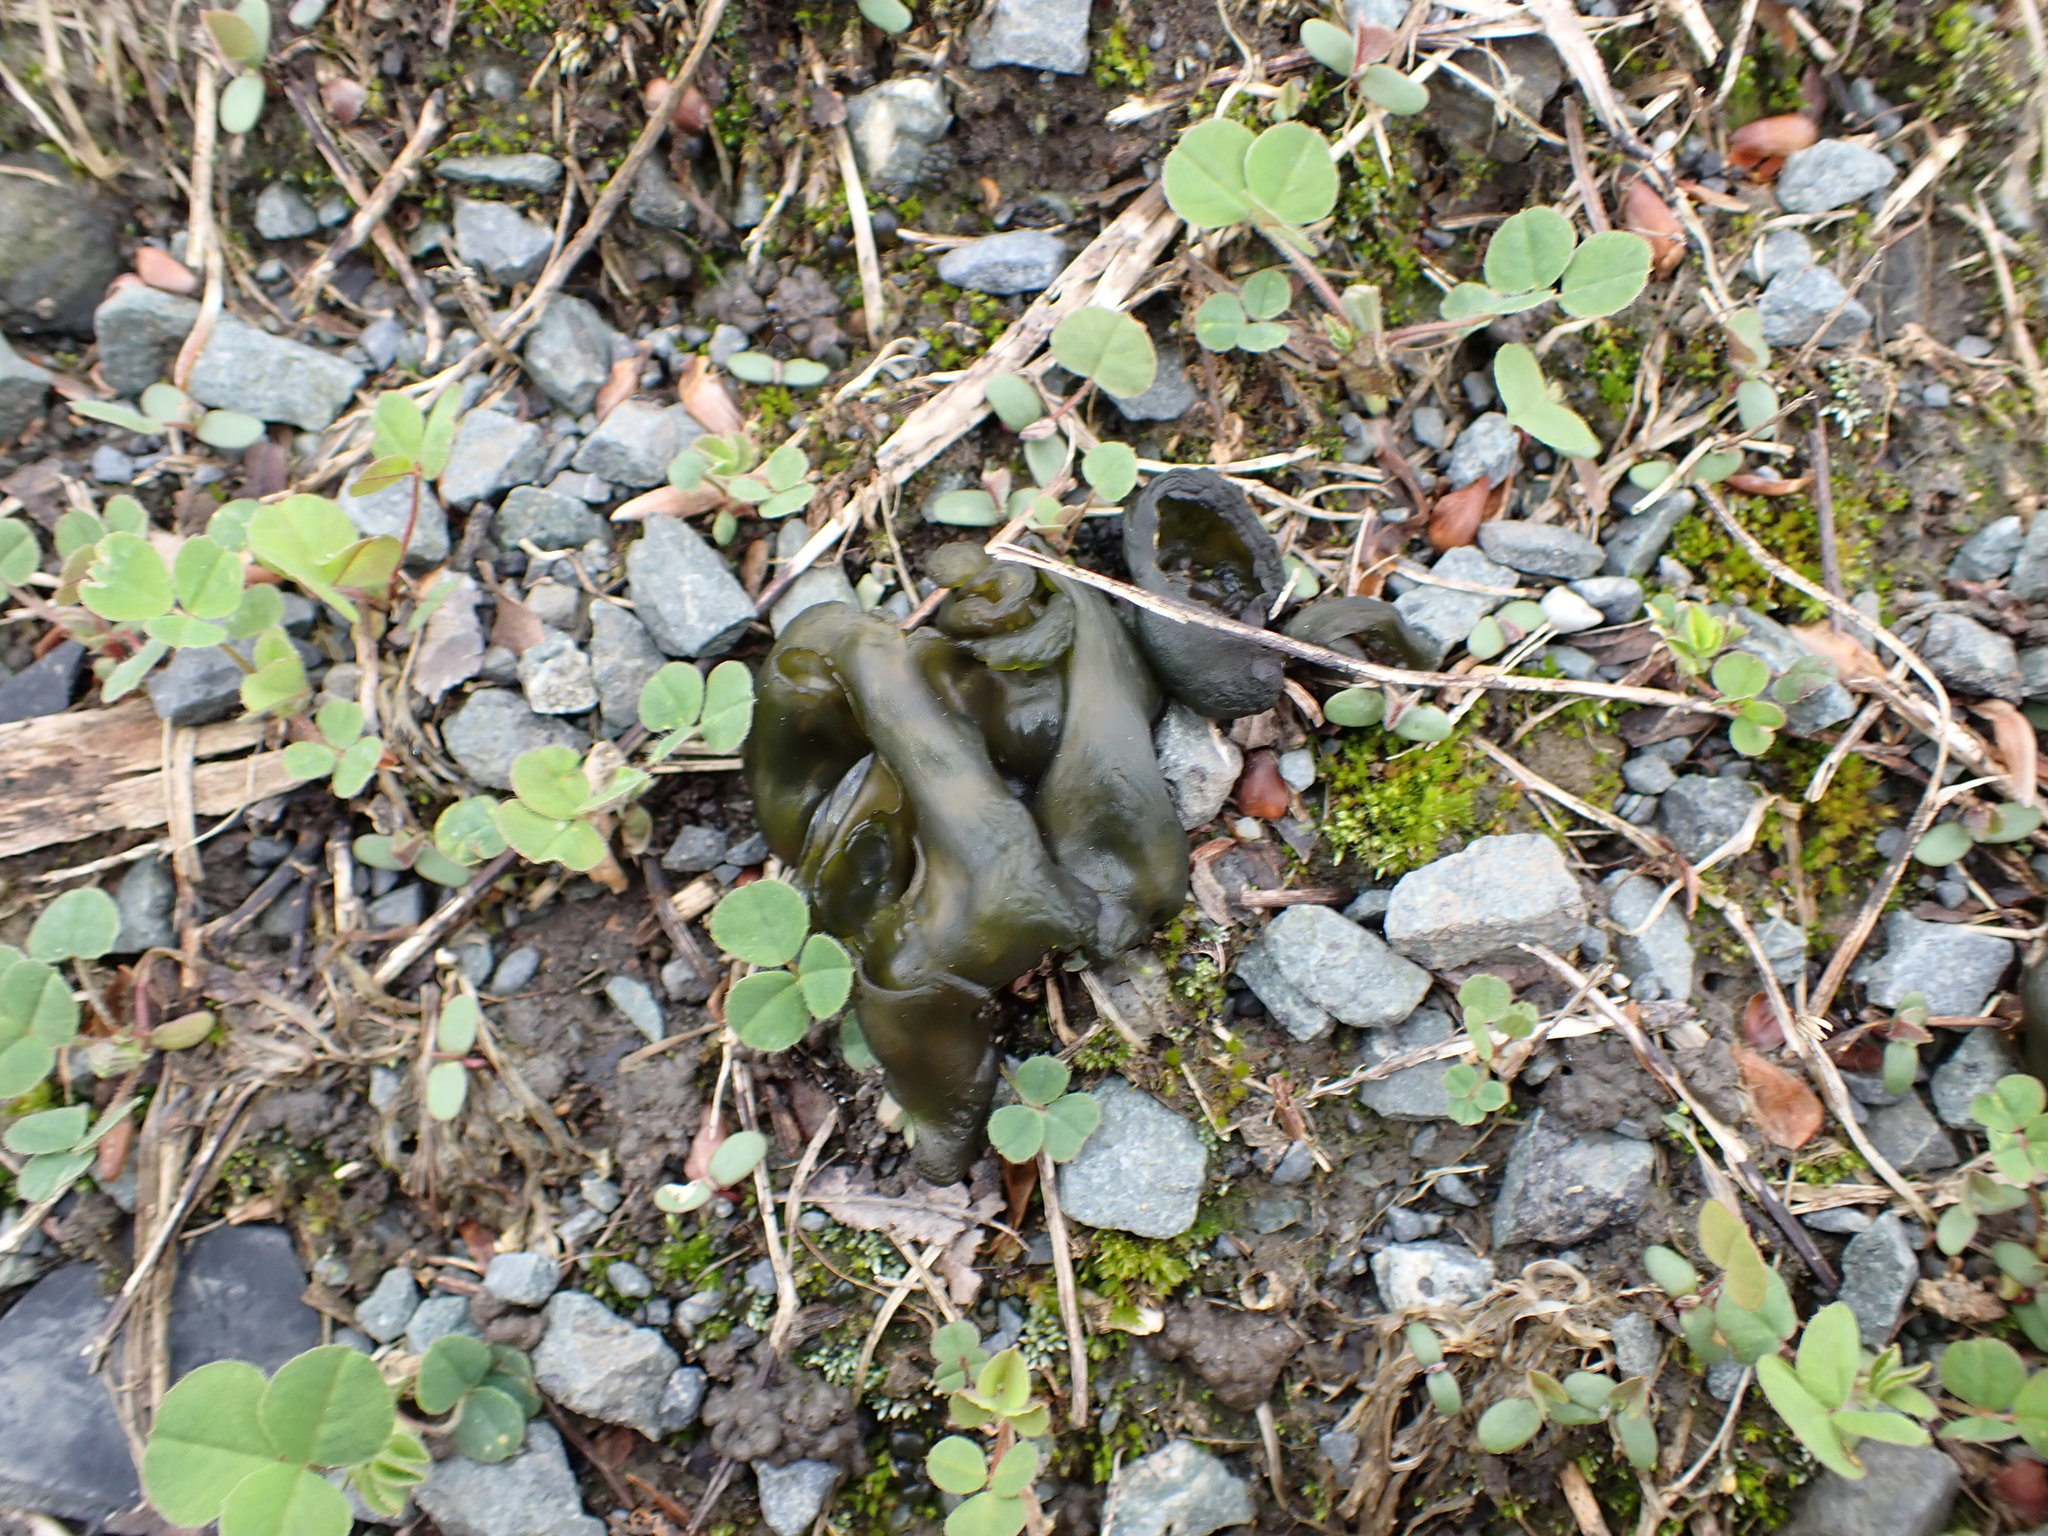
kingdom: Bacteria
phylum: Cyanobacteria
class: Cyanobacteriia
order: Cyanobacteriales
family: Nostocaceae
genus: Nostoc
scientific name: Nostoc commune
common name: Star jelly
